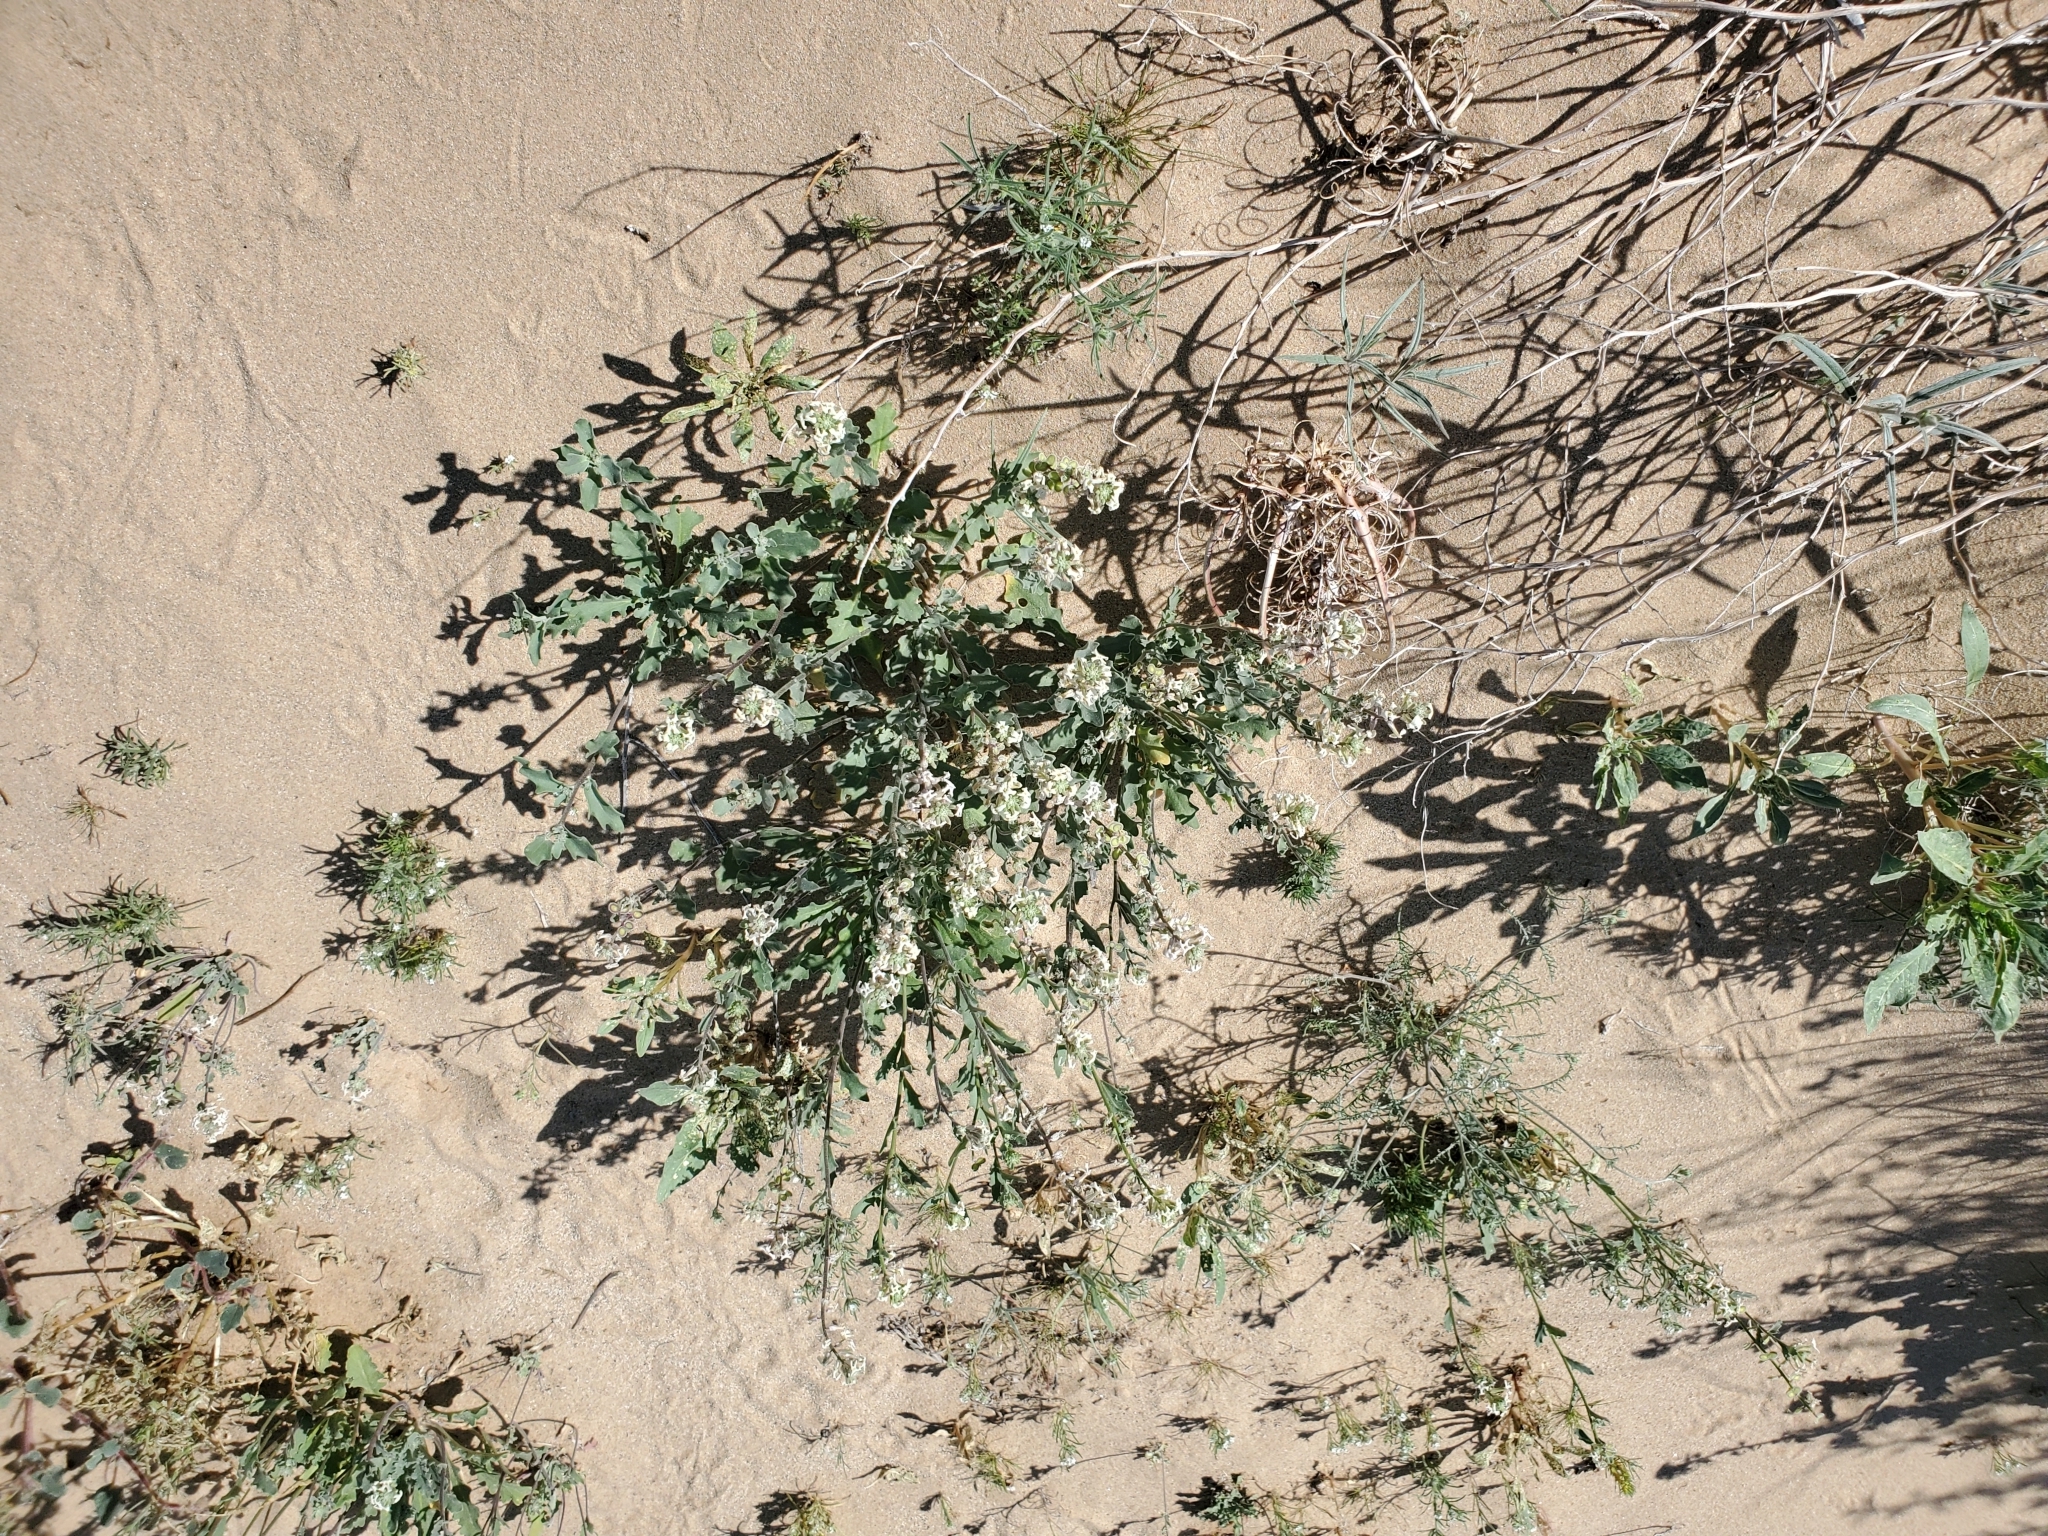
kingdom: Plantae
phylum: Tracheophyta
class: Magnoliopsida
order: Brassicales
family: Brassicaceae
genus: Dithyrea
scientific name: Dithyrea californica
